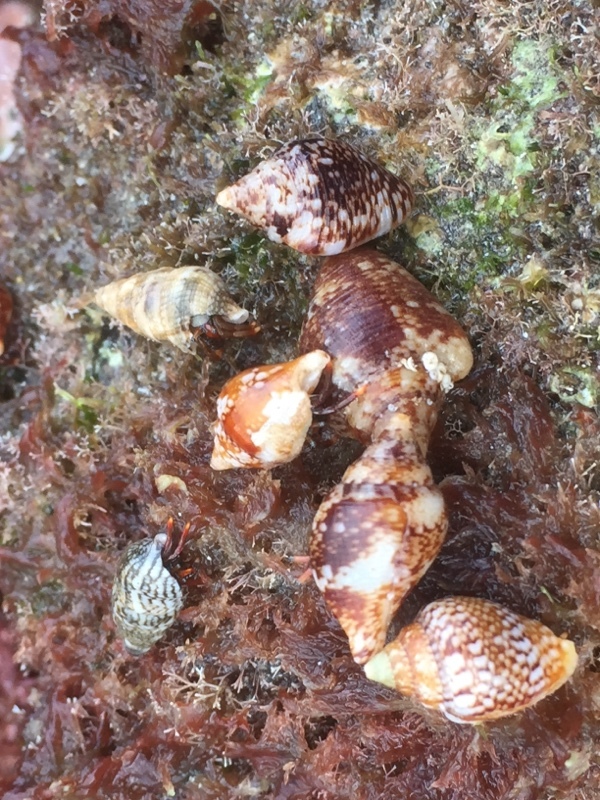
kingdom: Animalia
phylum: Mollusca
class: Gastropoda
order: Neogastropoda
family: Columbellidae
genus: Columbella
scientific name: Columbella adansoni
